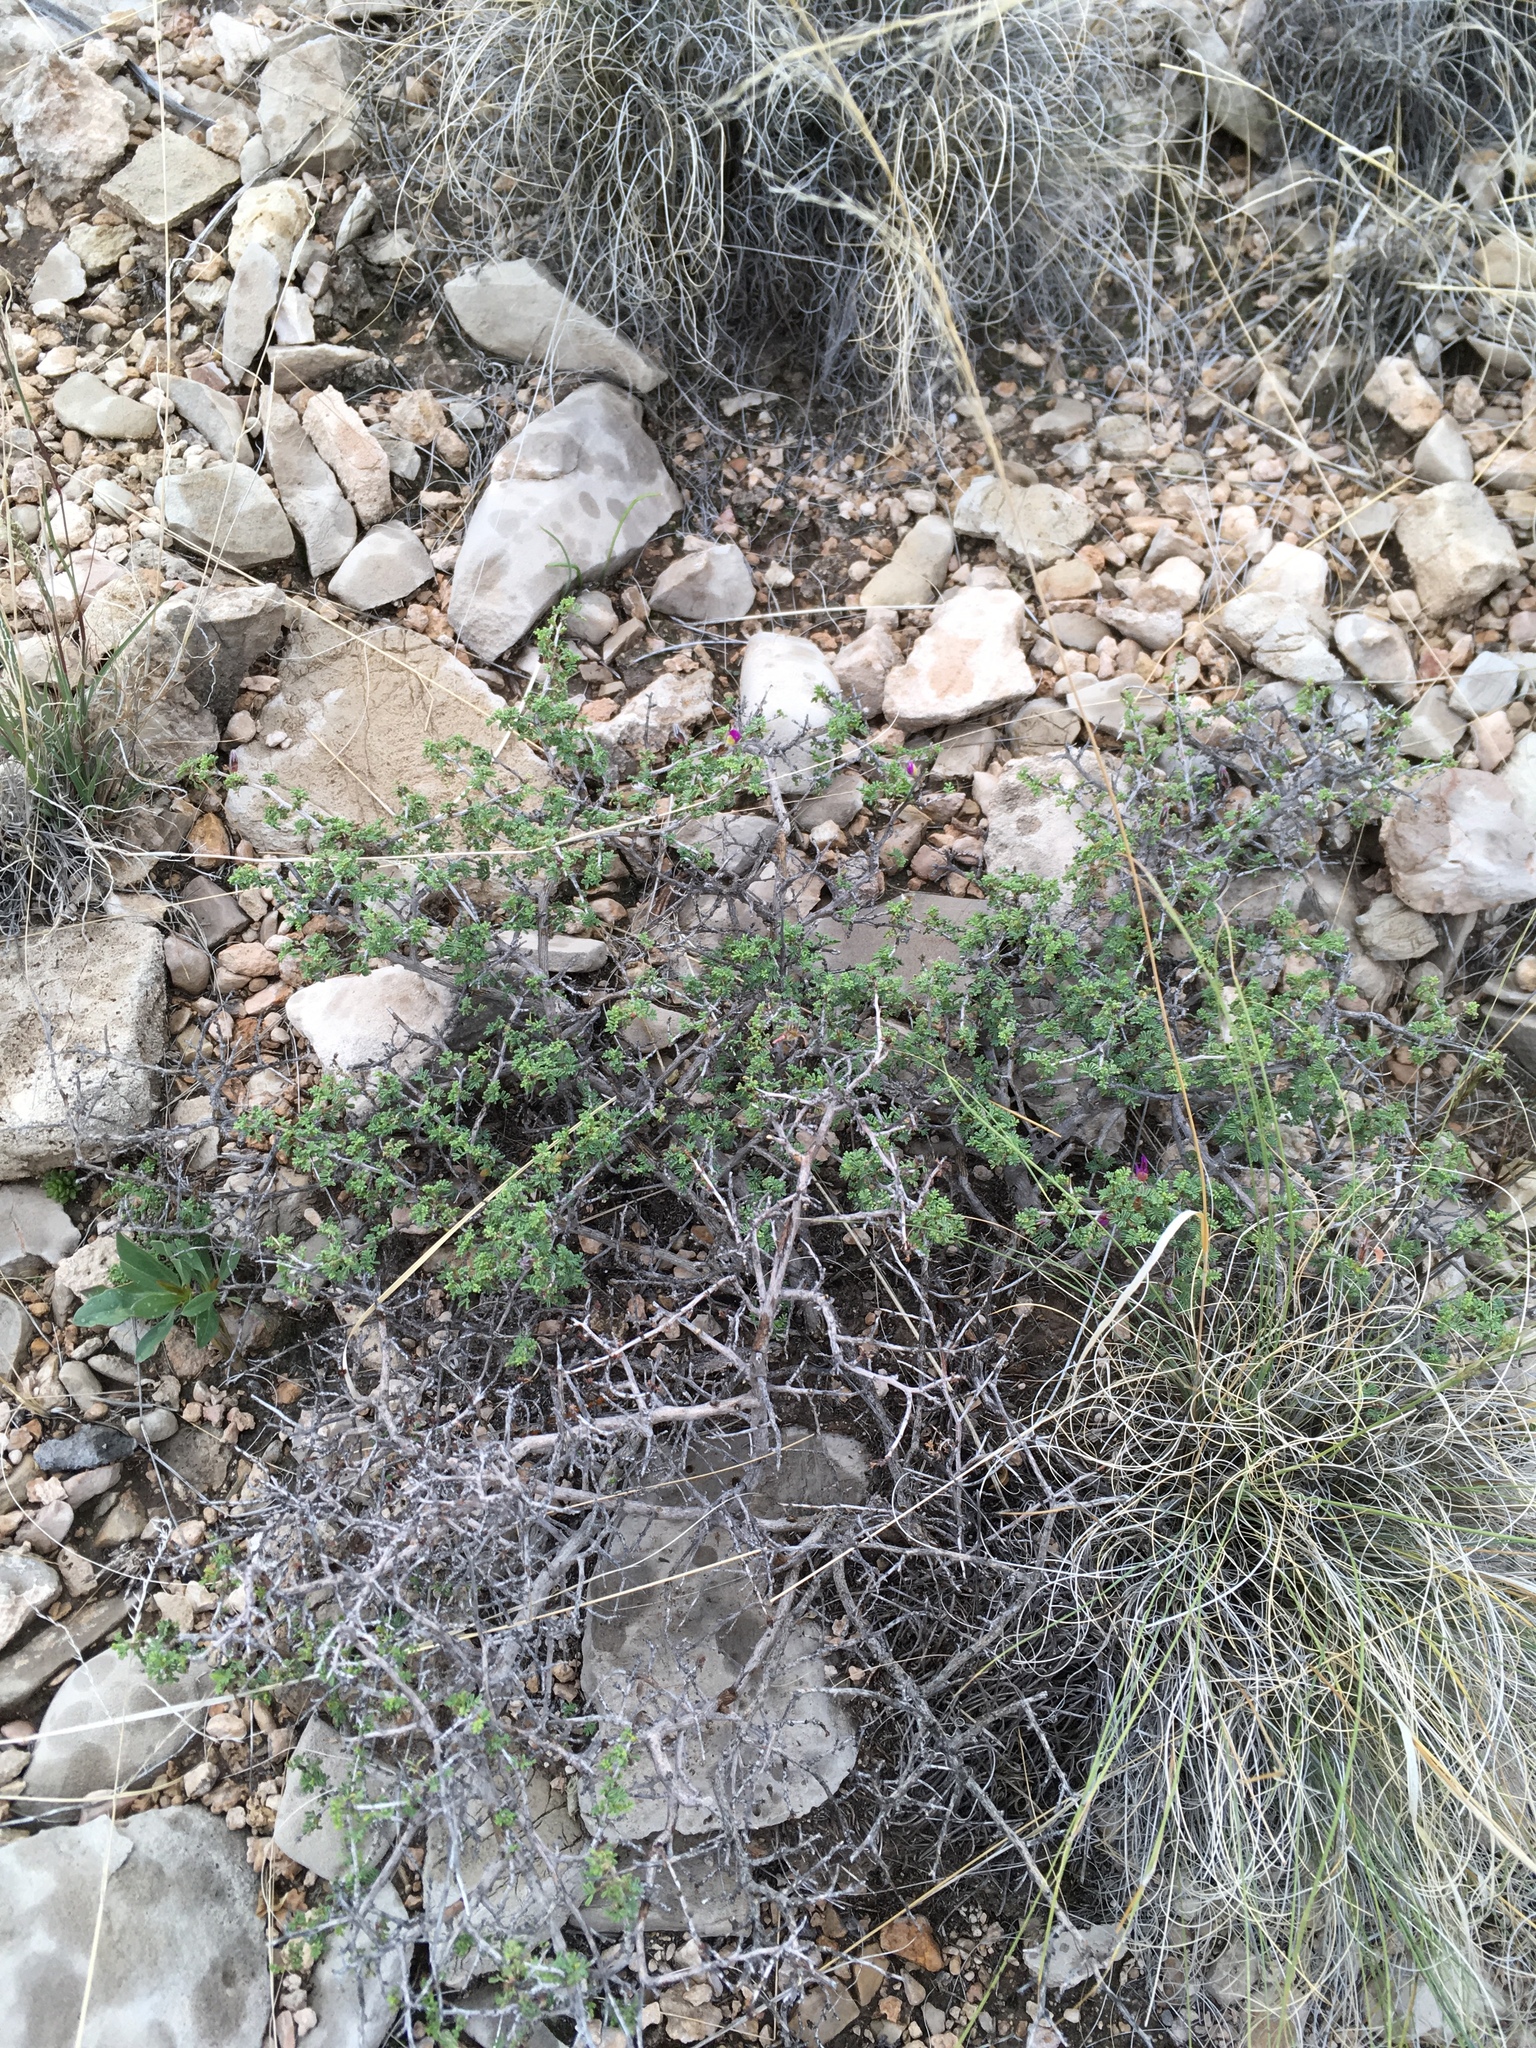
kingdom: Plantae
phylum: Tracheophyta
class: Magnoliopsida
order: Fabales
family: Fabaceae
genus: Dalea
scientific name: Dalea formosa
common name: Feather-plume dalea
